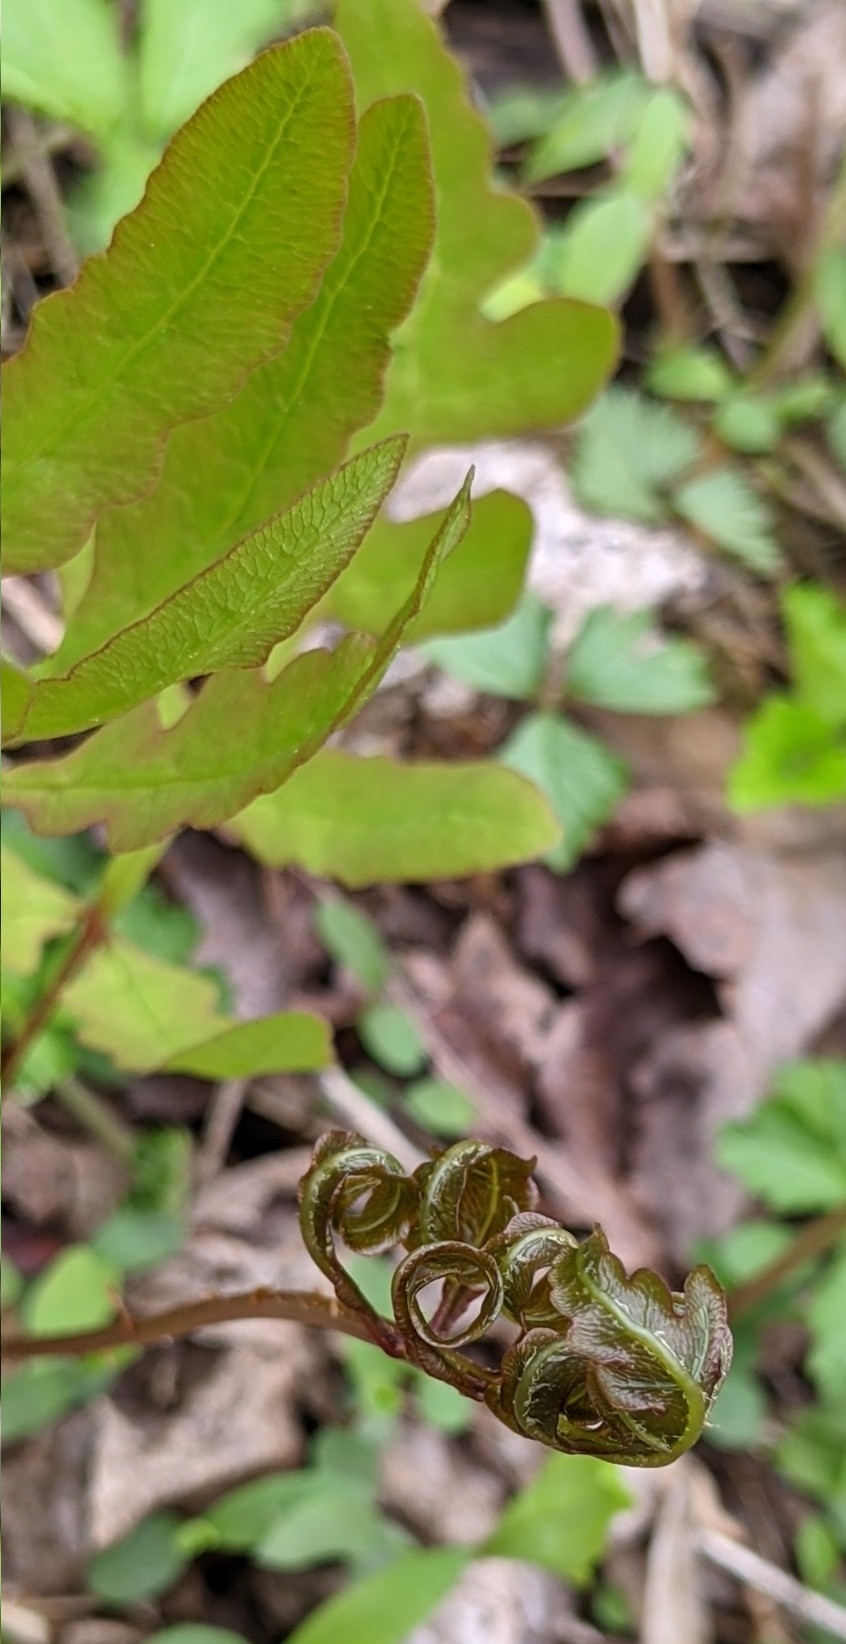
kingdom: Plantae
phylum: Tracheophyta
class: Polypodiopsida
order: Polypodiales
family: Onocleaceae
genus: Onoclea
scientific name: Onoclea sensibilis
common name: Sensitive fern
